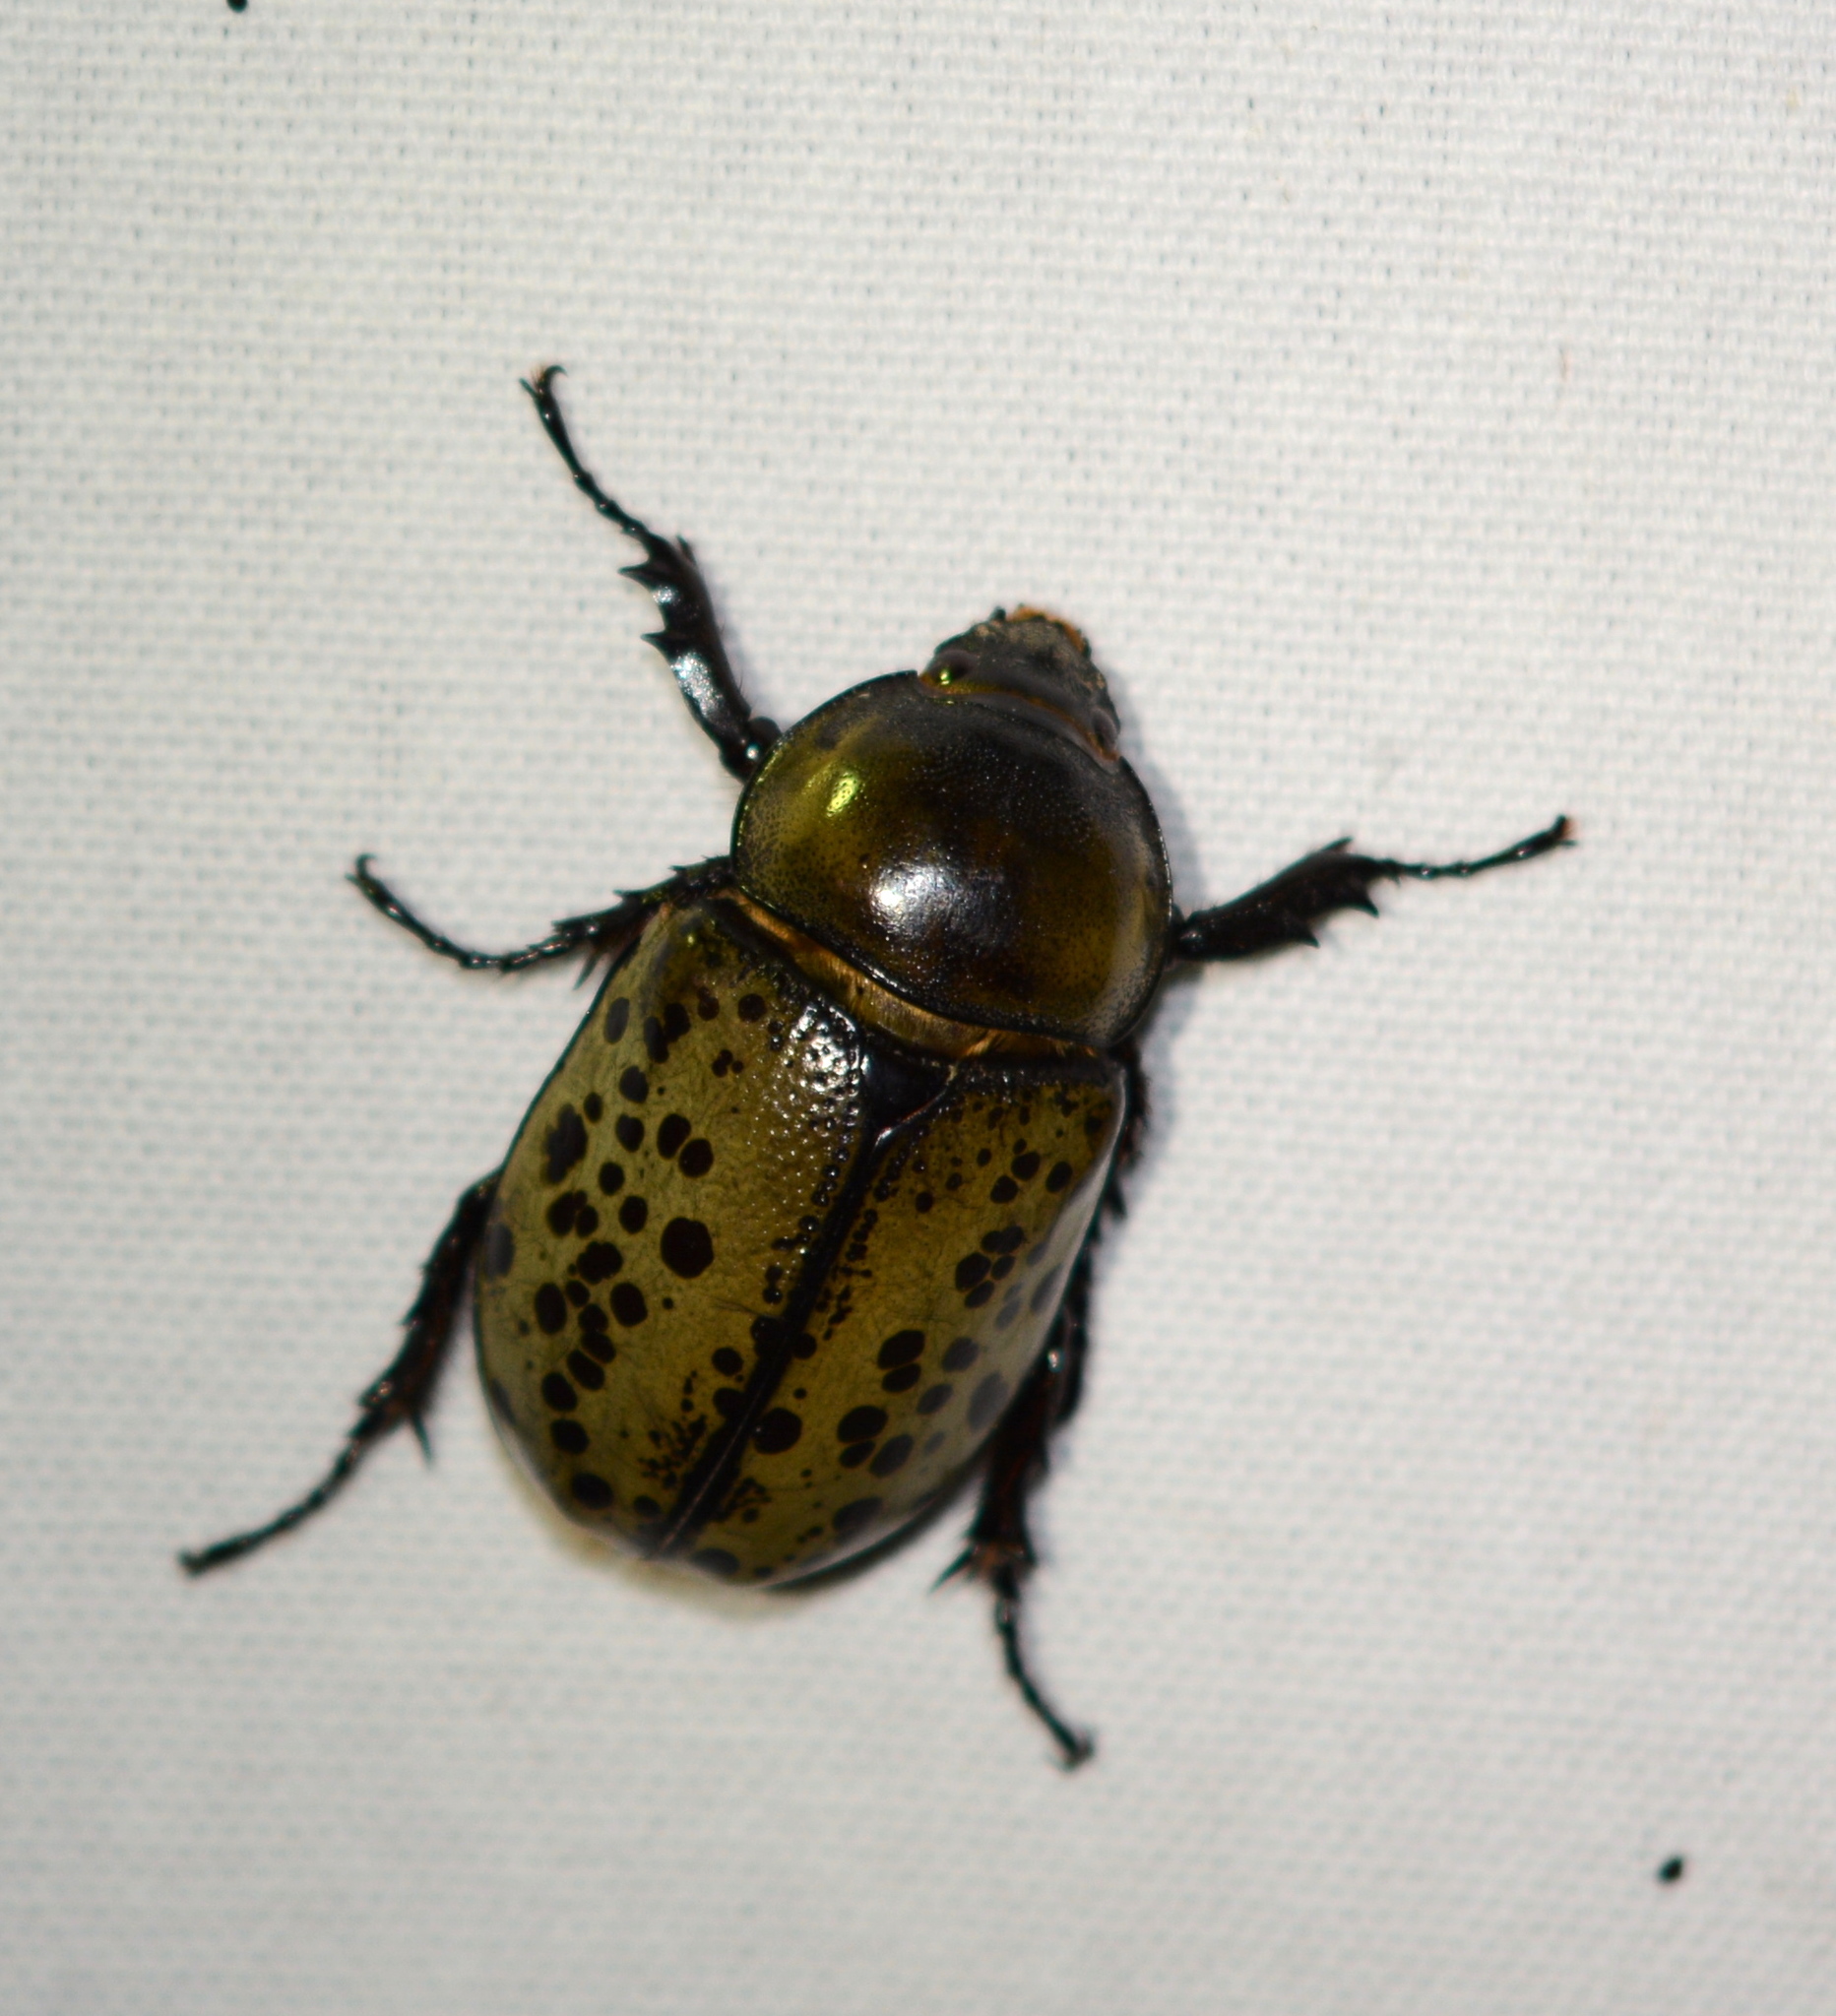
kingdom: Animalia
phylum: Arthropoda
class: Insecta
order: Coleoptera
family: Scarabaeidae
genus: Dynastes
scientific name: Dynastes tityus
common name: Eastern hercules beetle
